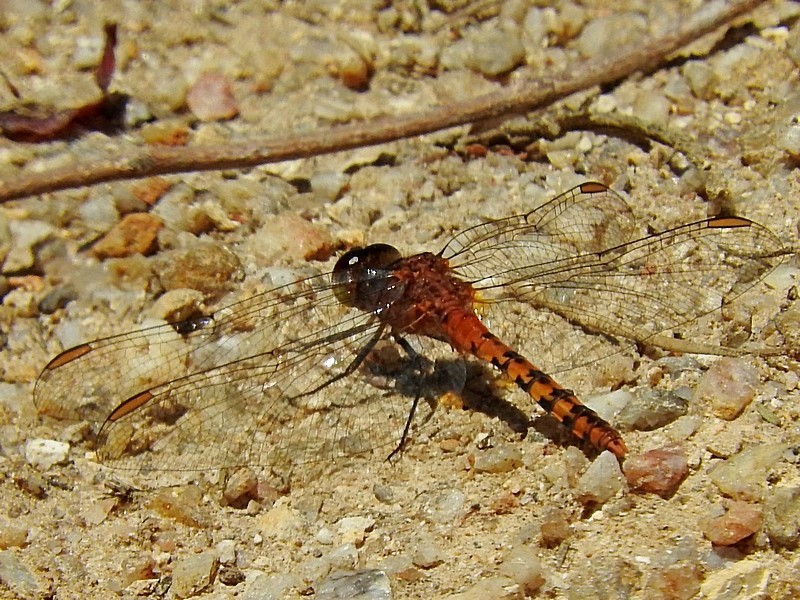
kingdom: Animalia
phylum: Arthropoda
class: Insecta
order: Odonata
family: Libellulidae
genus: Diplacodes
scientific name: Diplacodes melanopsis
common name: Black-faced percher
